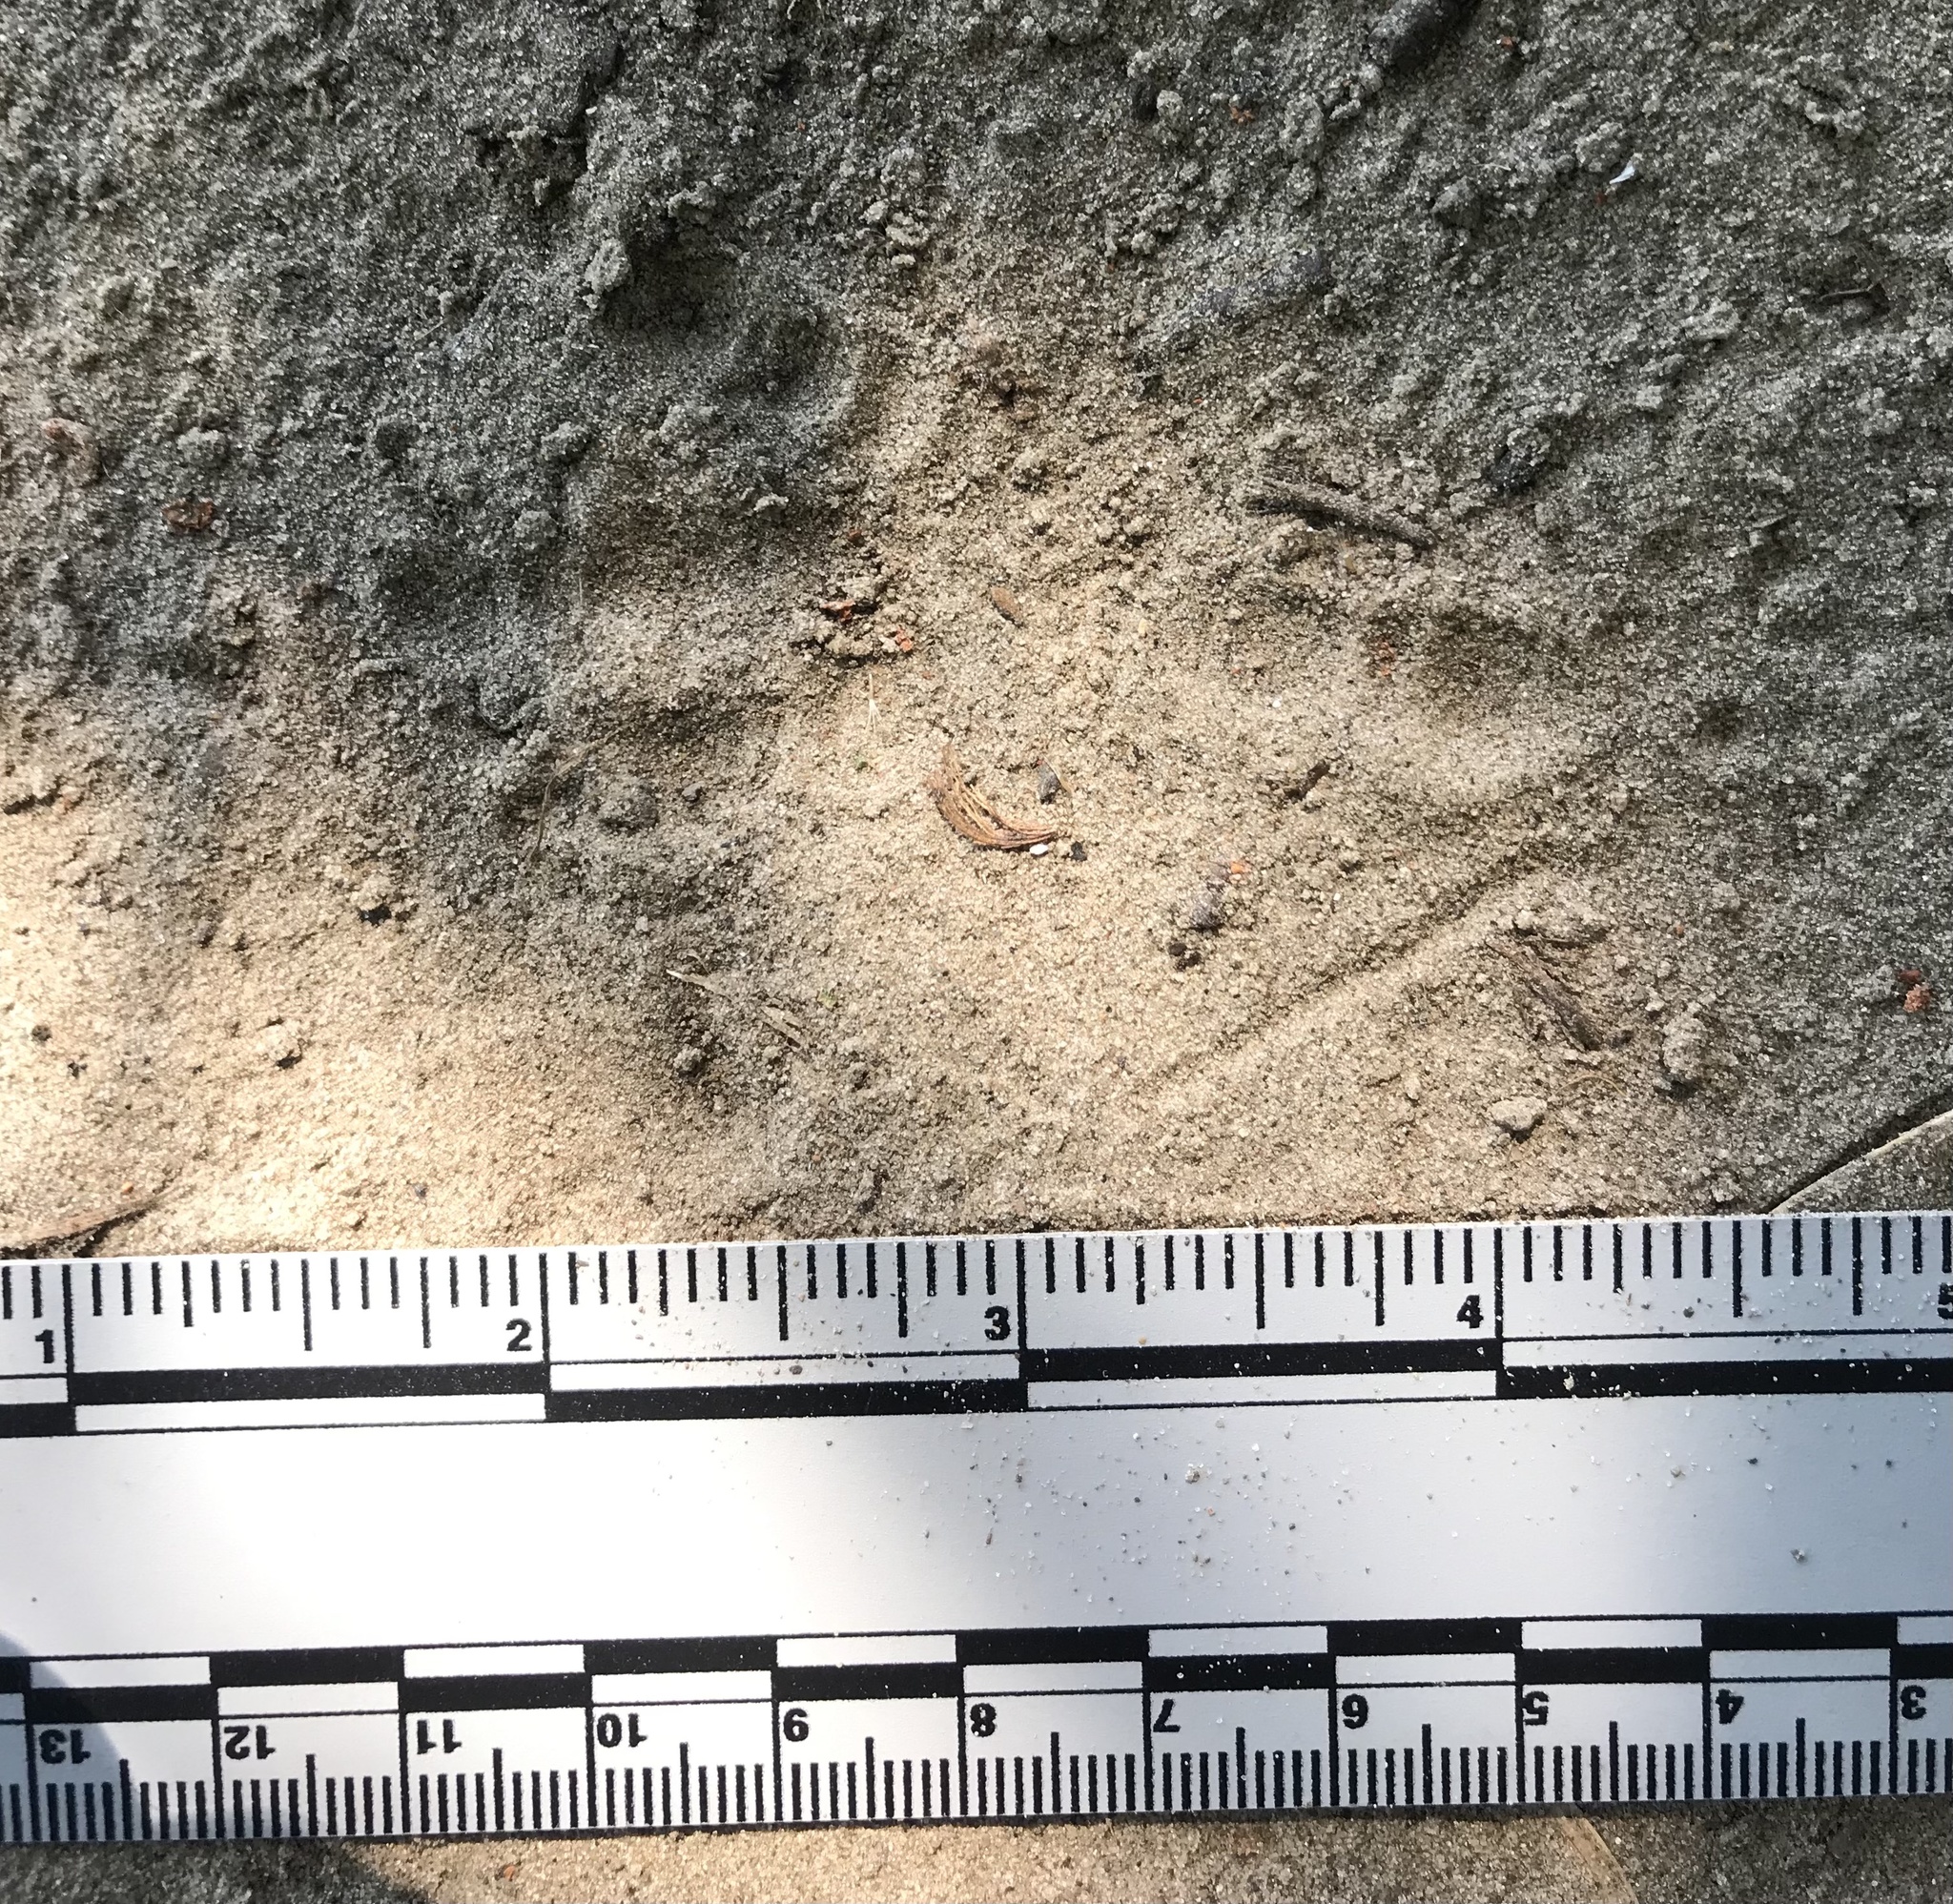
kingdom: Animalia
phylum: Chordata
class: Aves
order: Passeriformes
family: Corvidae
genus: Corvus
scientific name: Corvus brachyrhynchos
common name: American crow
